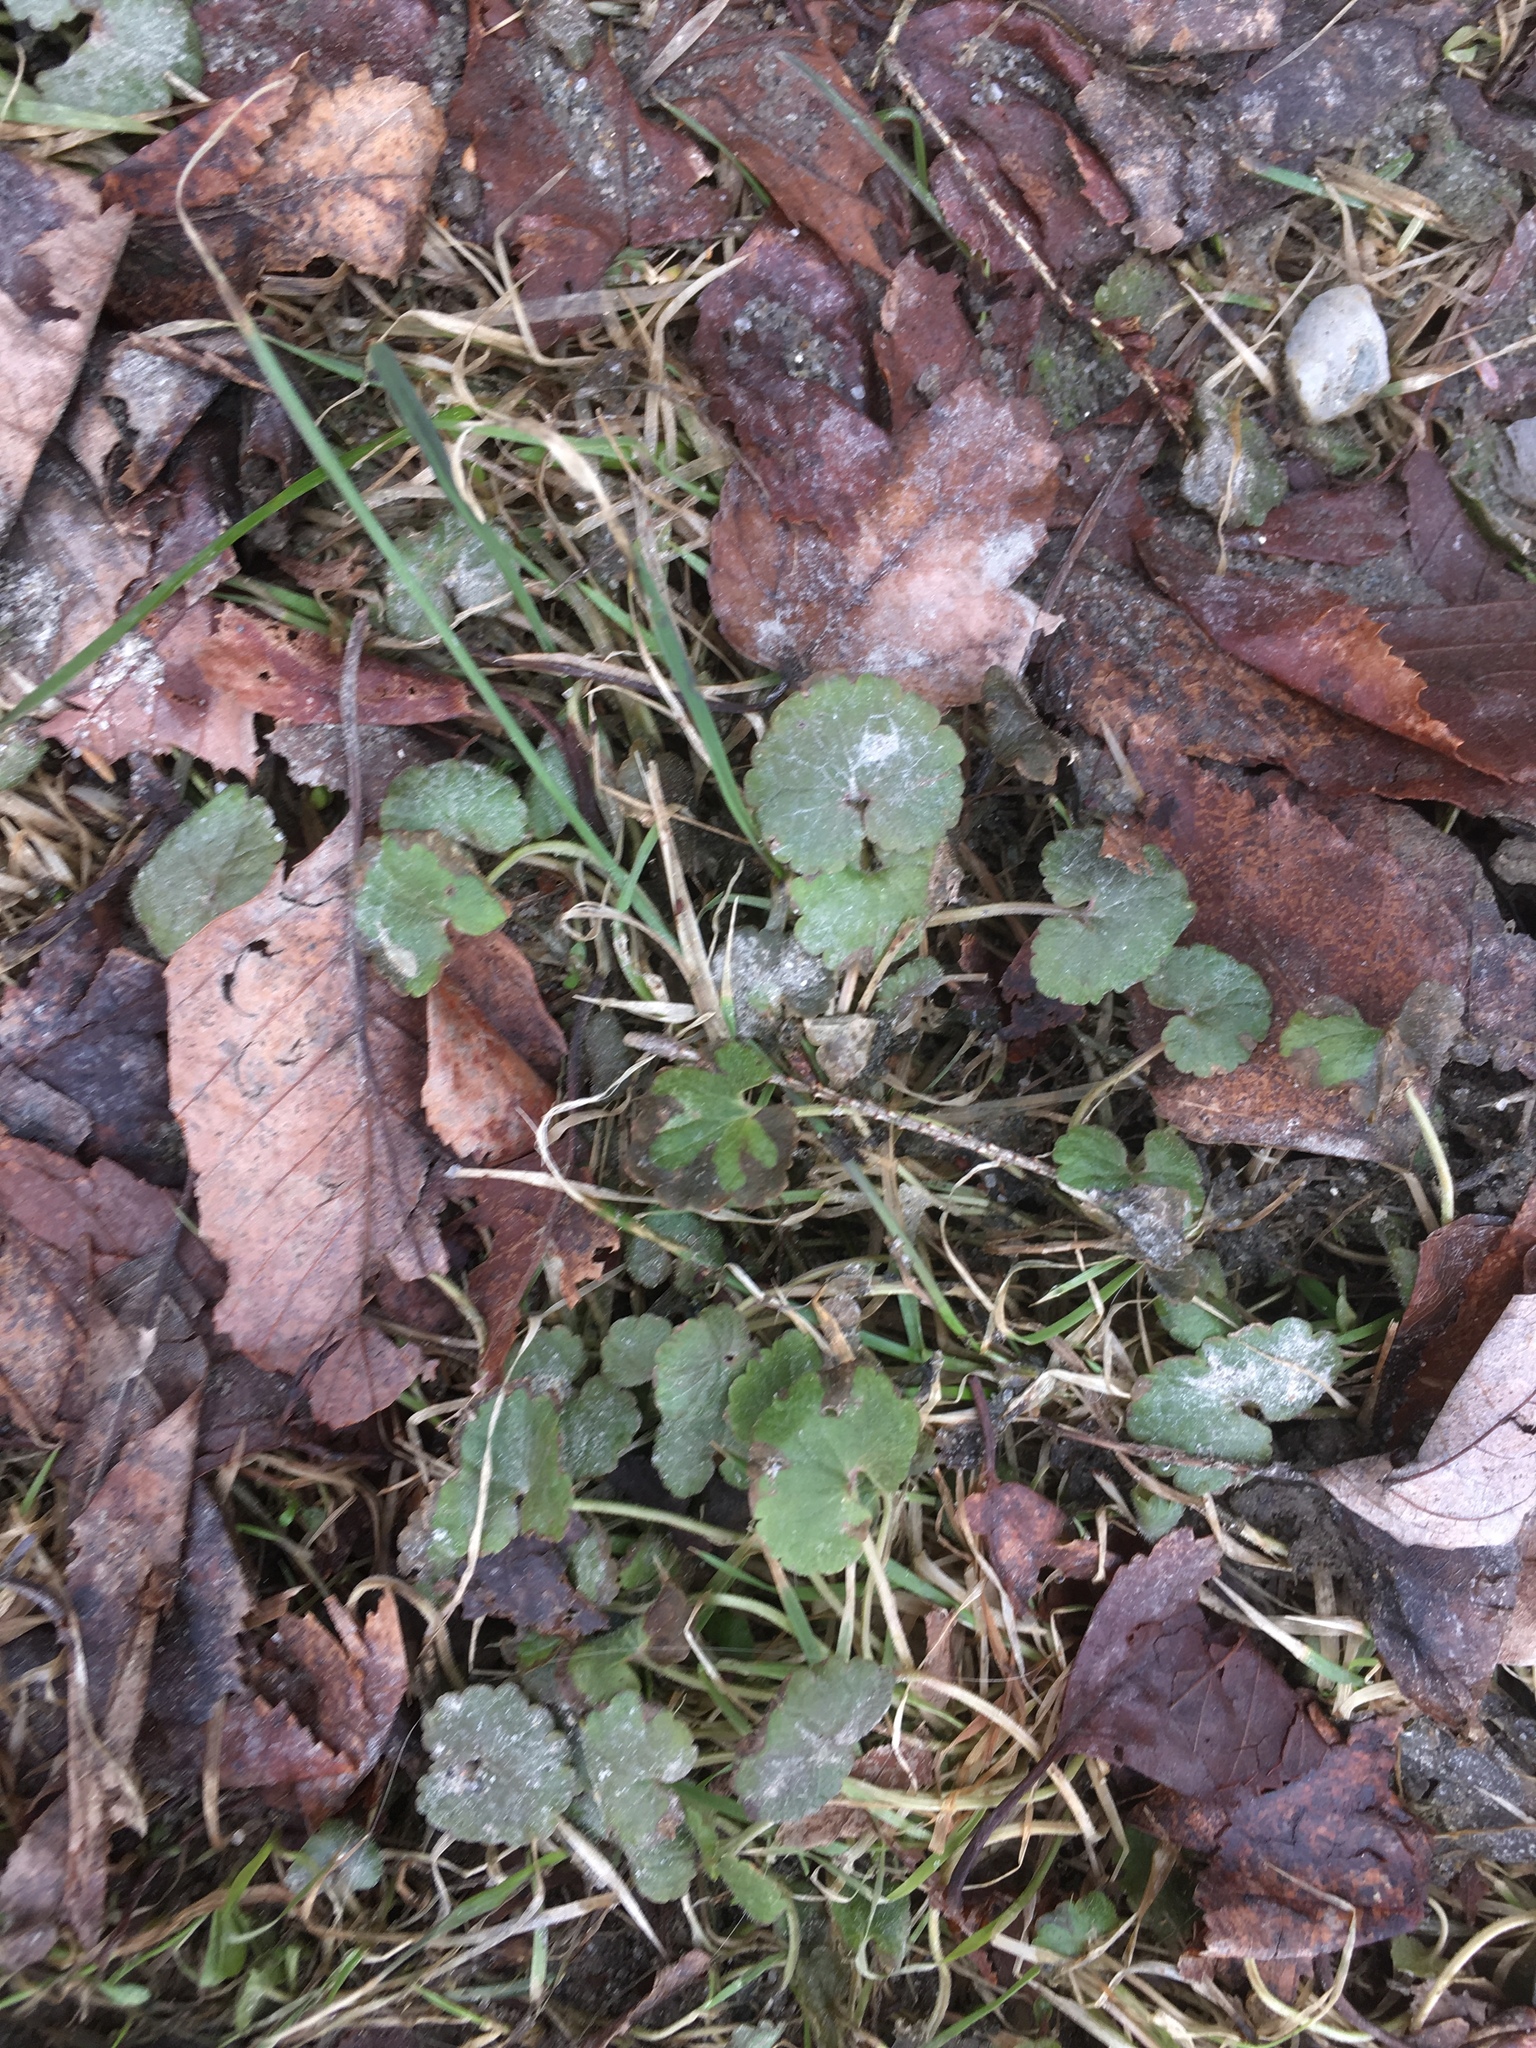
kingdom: Plantae
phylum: Tracheophyta
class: Magnoliopsida
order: Lamiales
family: Lamiaceae
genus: Glechoma
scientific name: Glechoma hederacea
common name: Ground ivy
